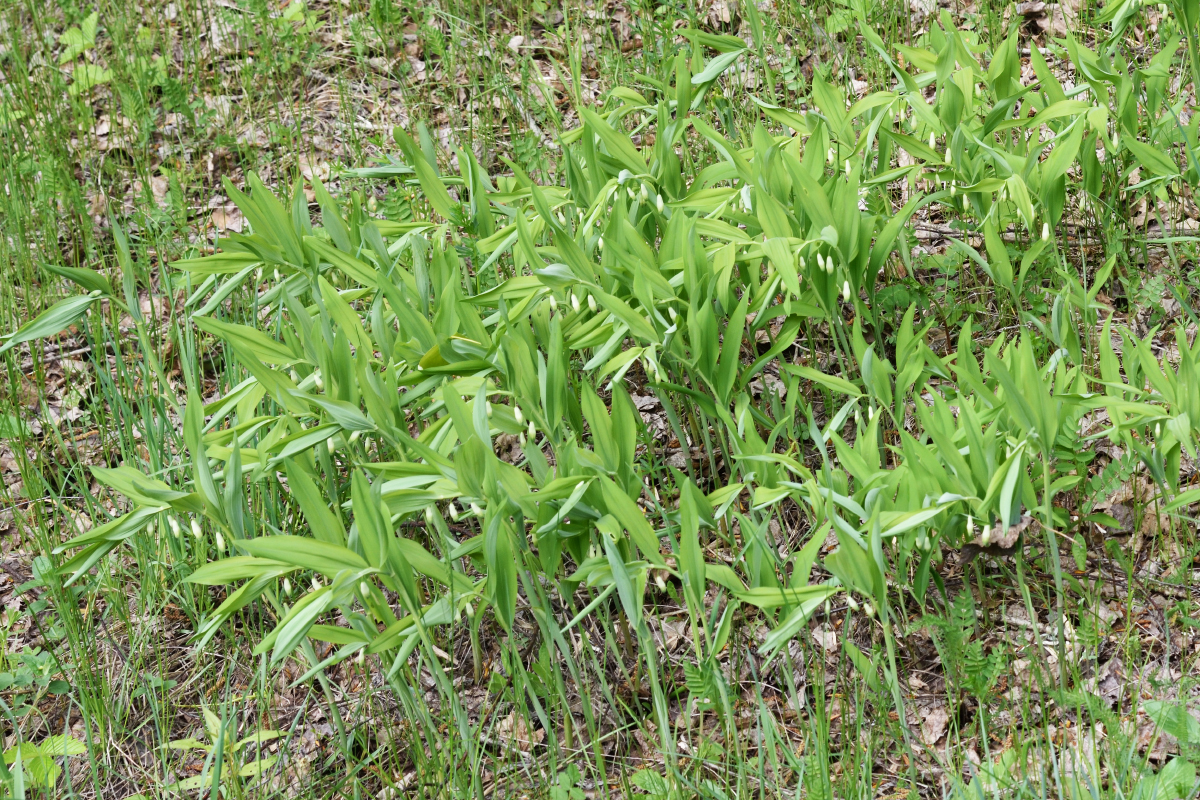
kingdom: Plantae
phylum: Tracheophyta
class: Liliopsida
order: Asparagales
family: Asparagaceae
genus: Polygonatum
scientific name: Polygonatum odoratum
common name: Angular solomon's-seal
